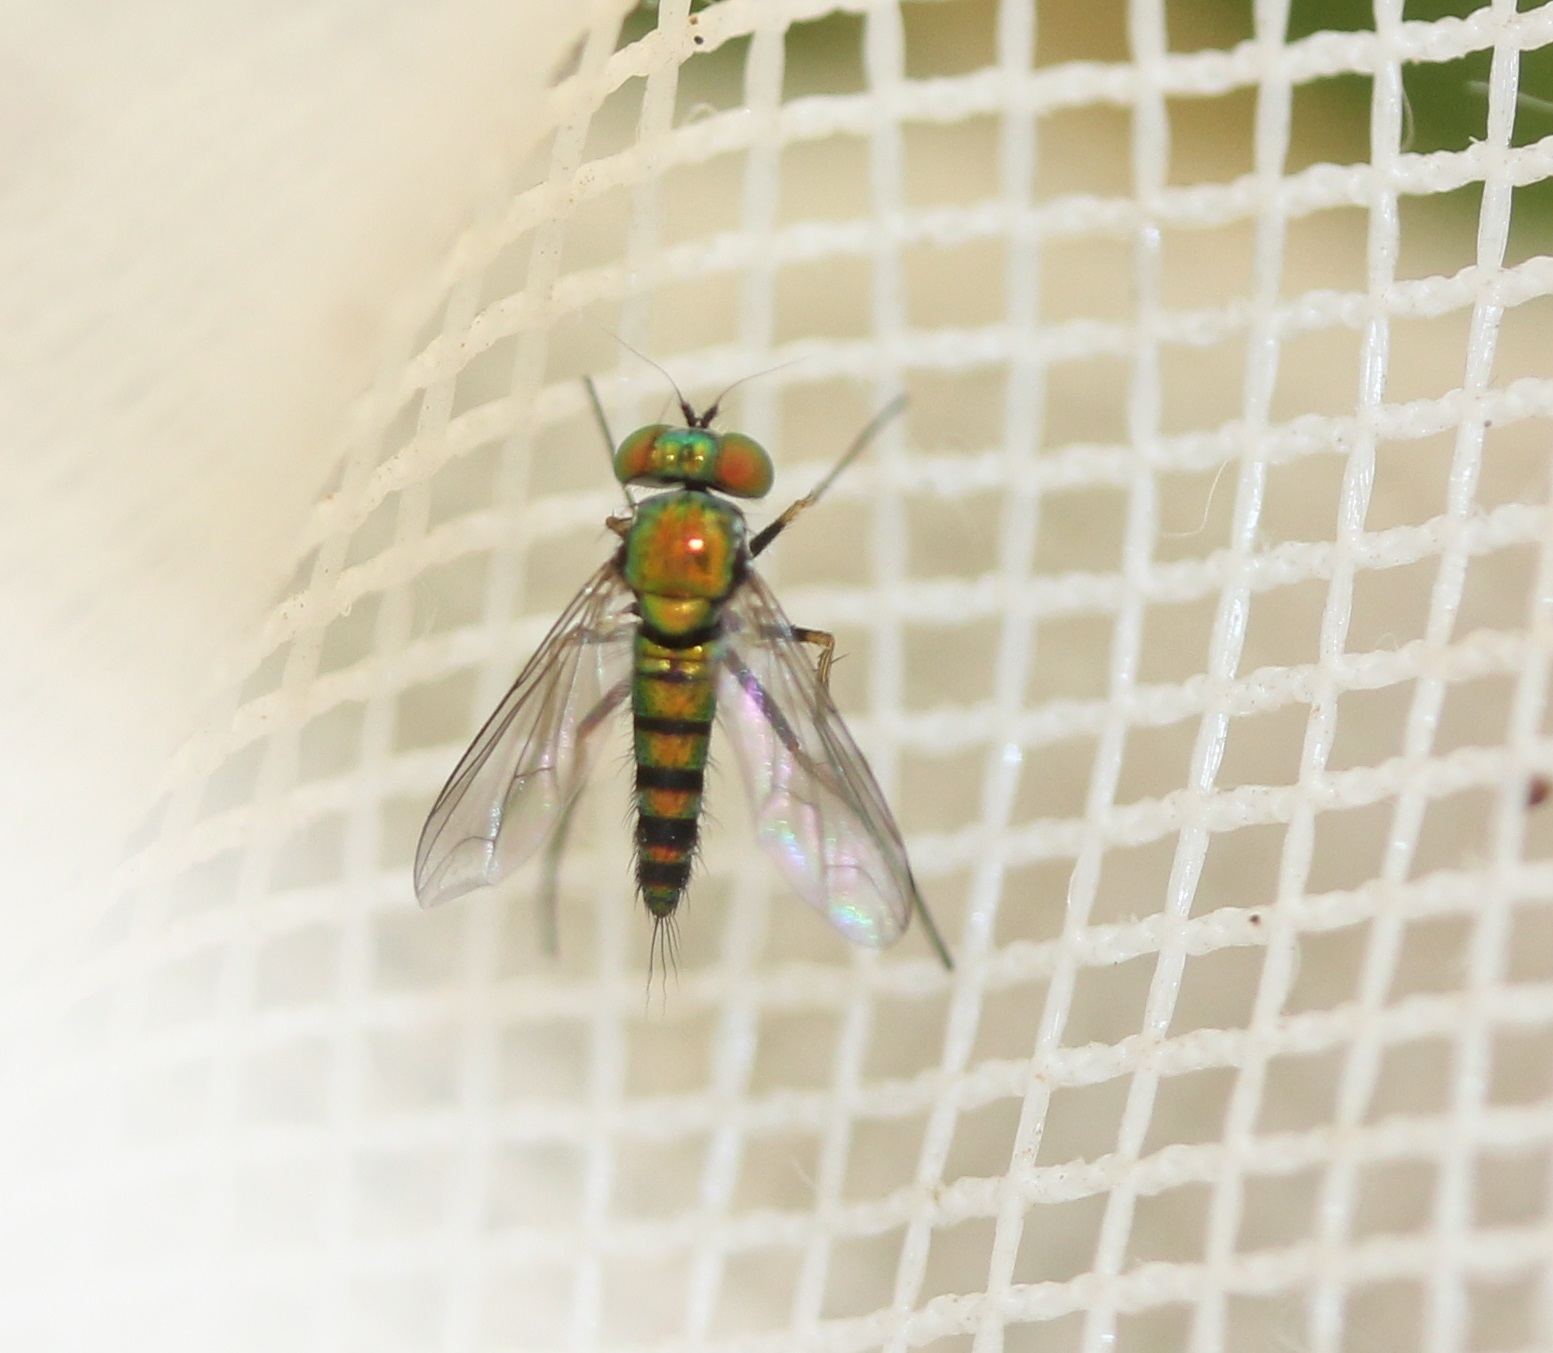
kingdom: Animalia
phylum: Arthropoda
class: Insecta
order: Diptera
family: Dolichopodidae
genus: Condylostylus
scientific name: Condylostylus caudatus
